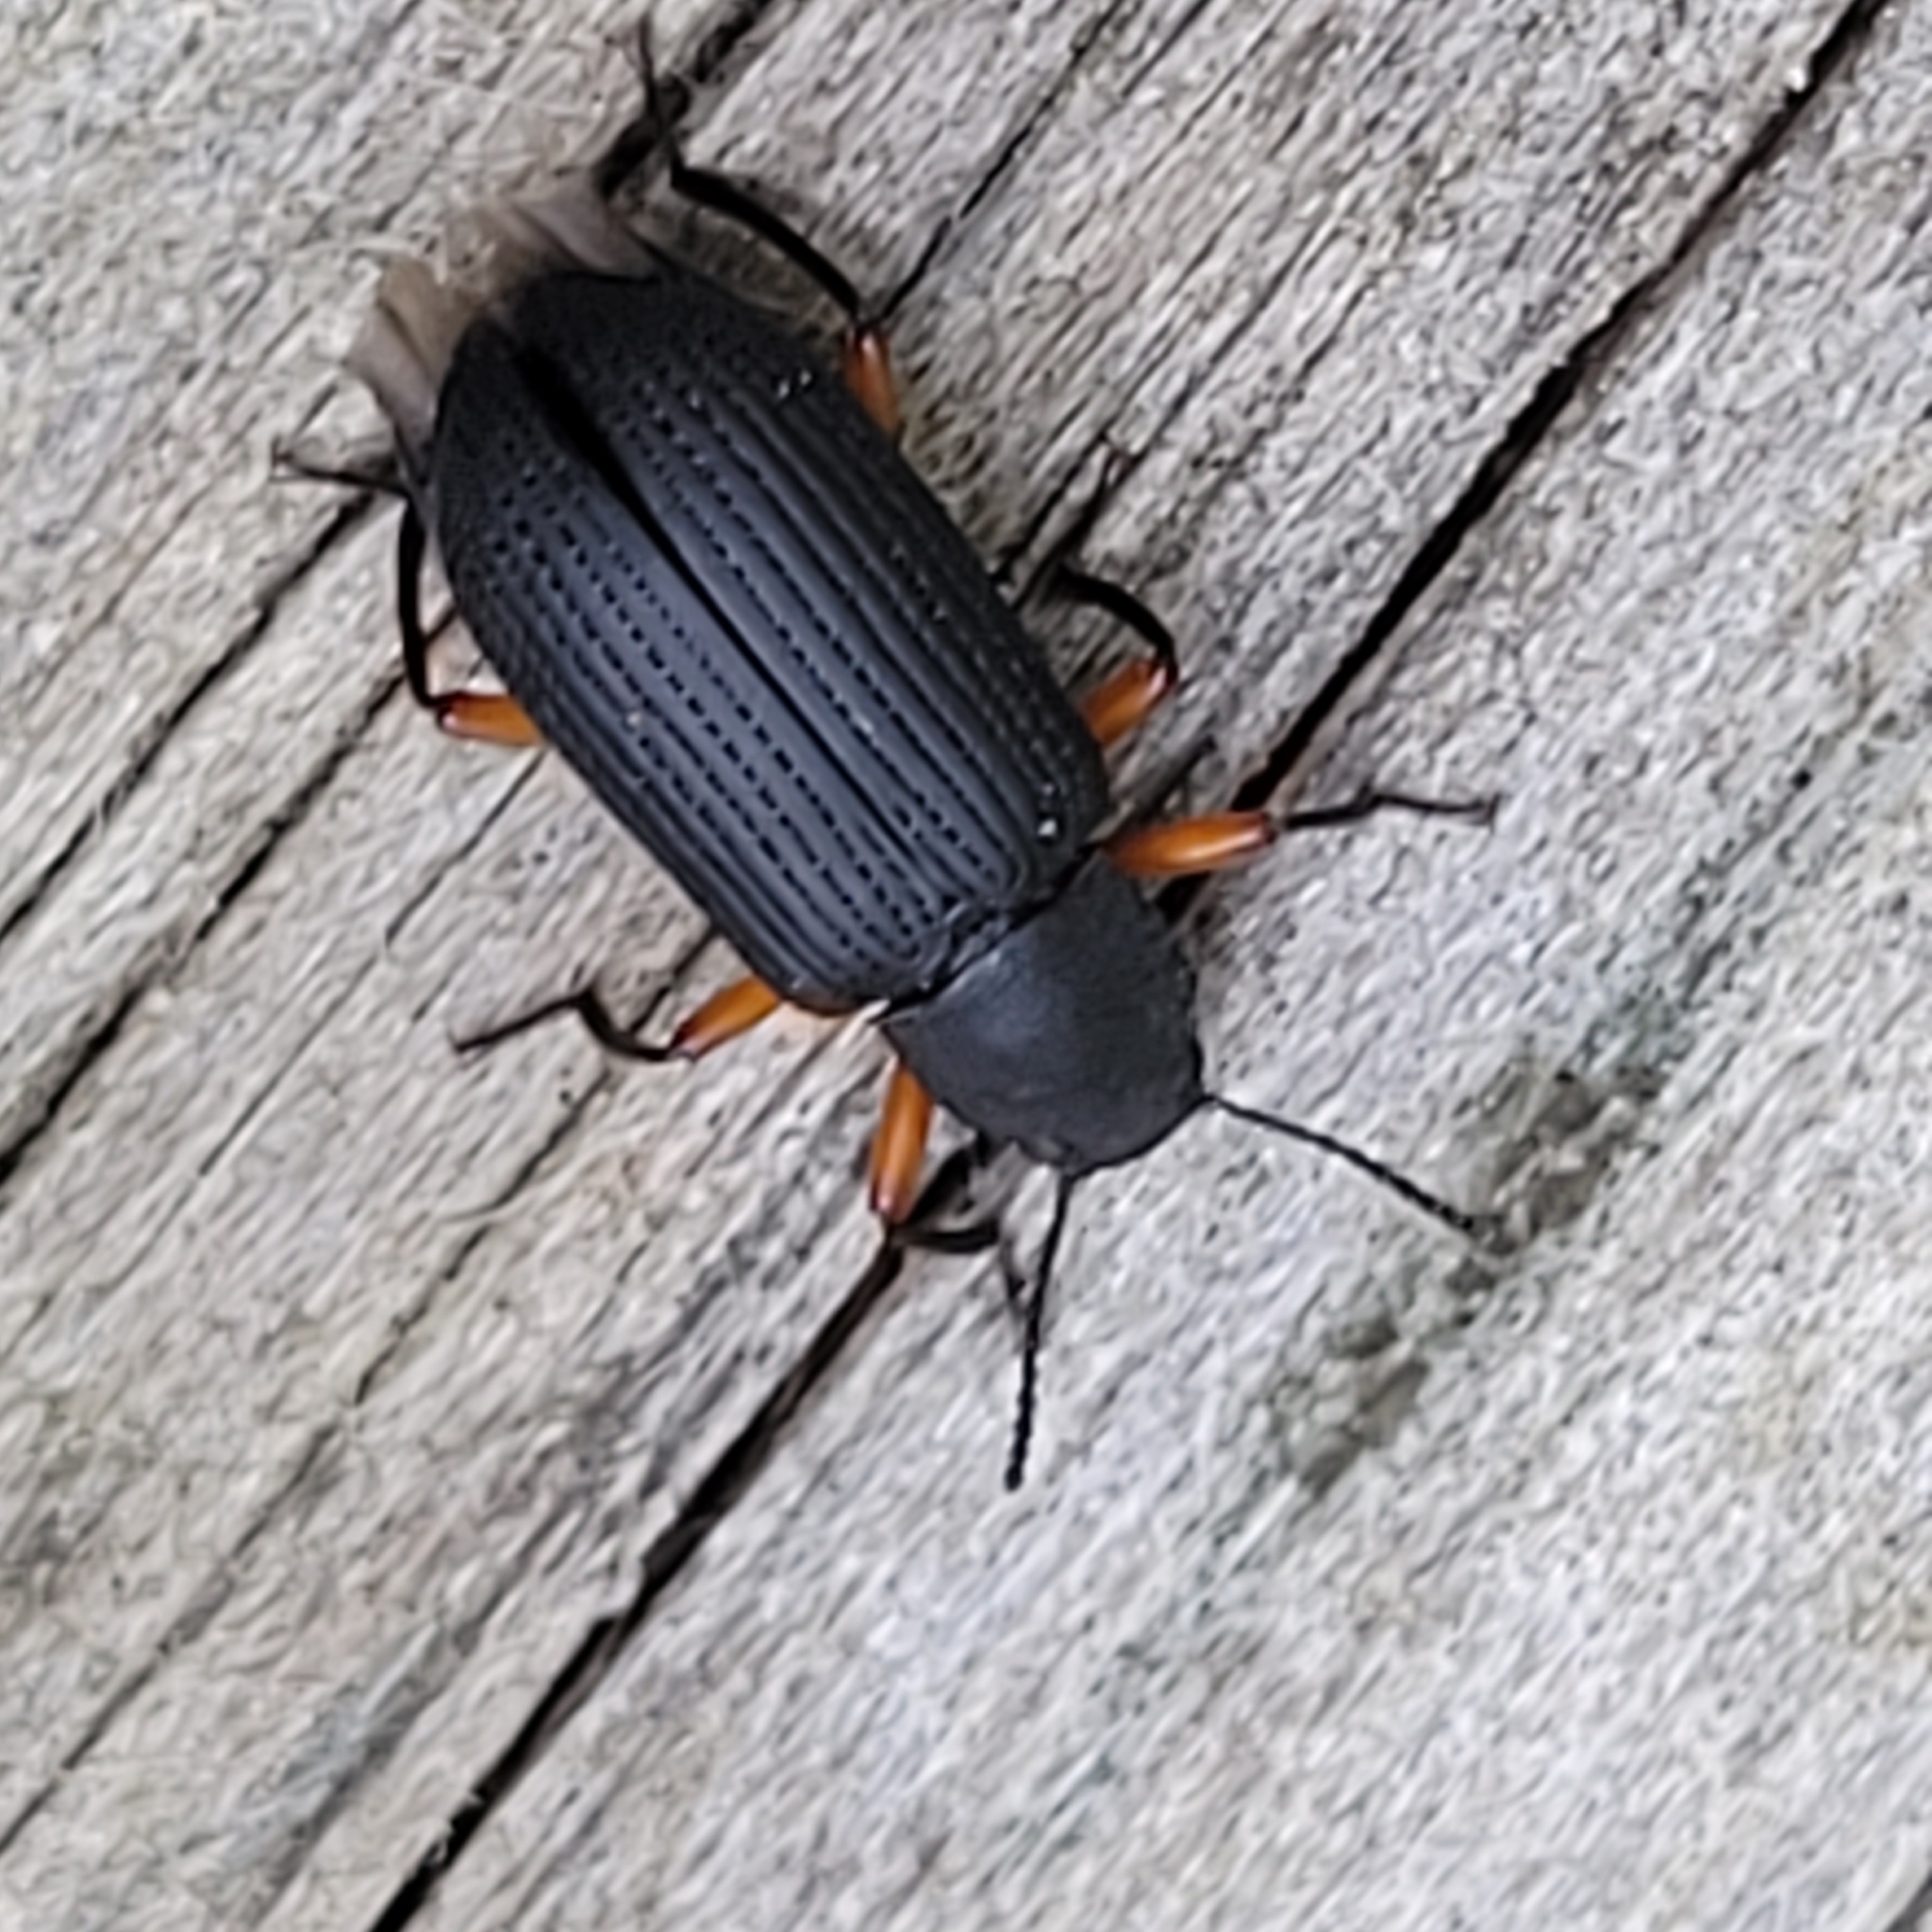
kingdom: Animalia
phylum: Arthropoda
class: Insecta
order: Coleoptera
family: Tenebrionidae
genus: Haplandrus
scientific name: Haplandrus fulvipes
